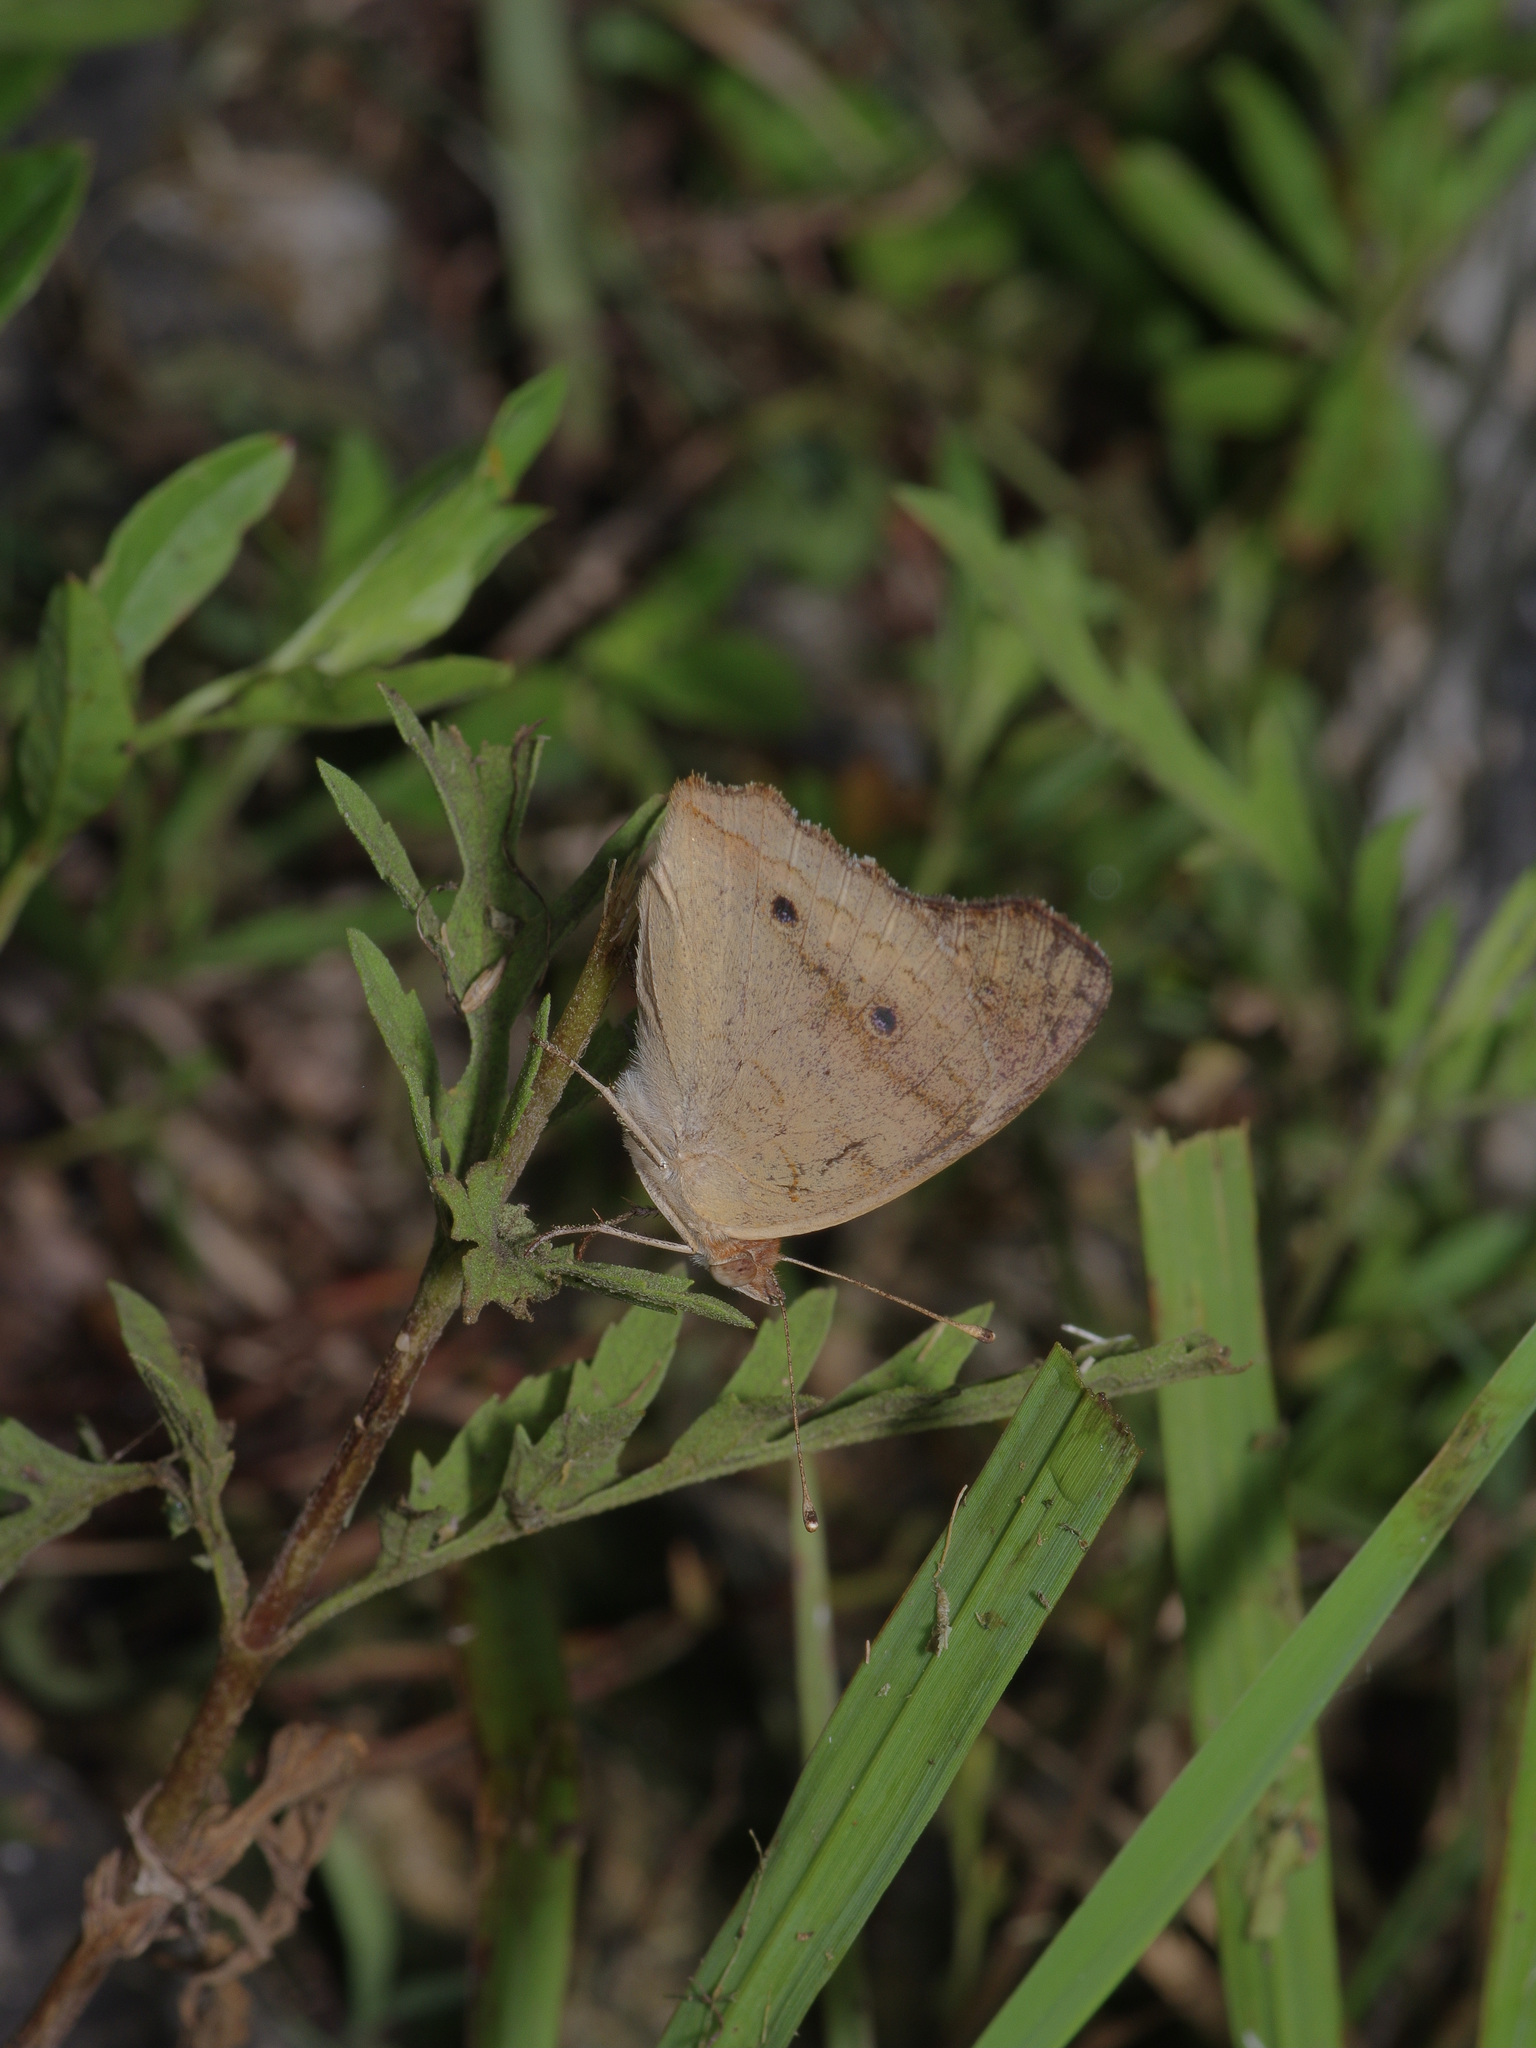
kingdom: Animalia
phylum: Arthropoda
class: Insecta
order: Lepidoptera
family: Nymphalidae
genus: Junonia
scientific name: Junonia coenia
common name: Common buckeye
